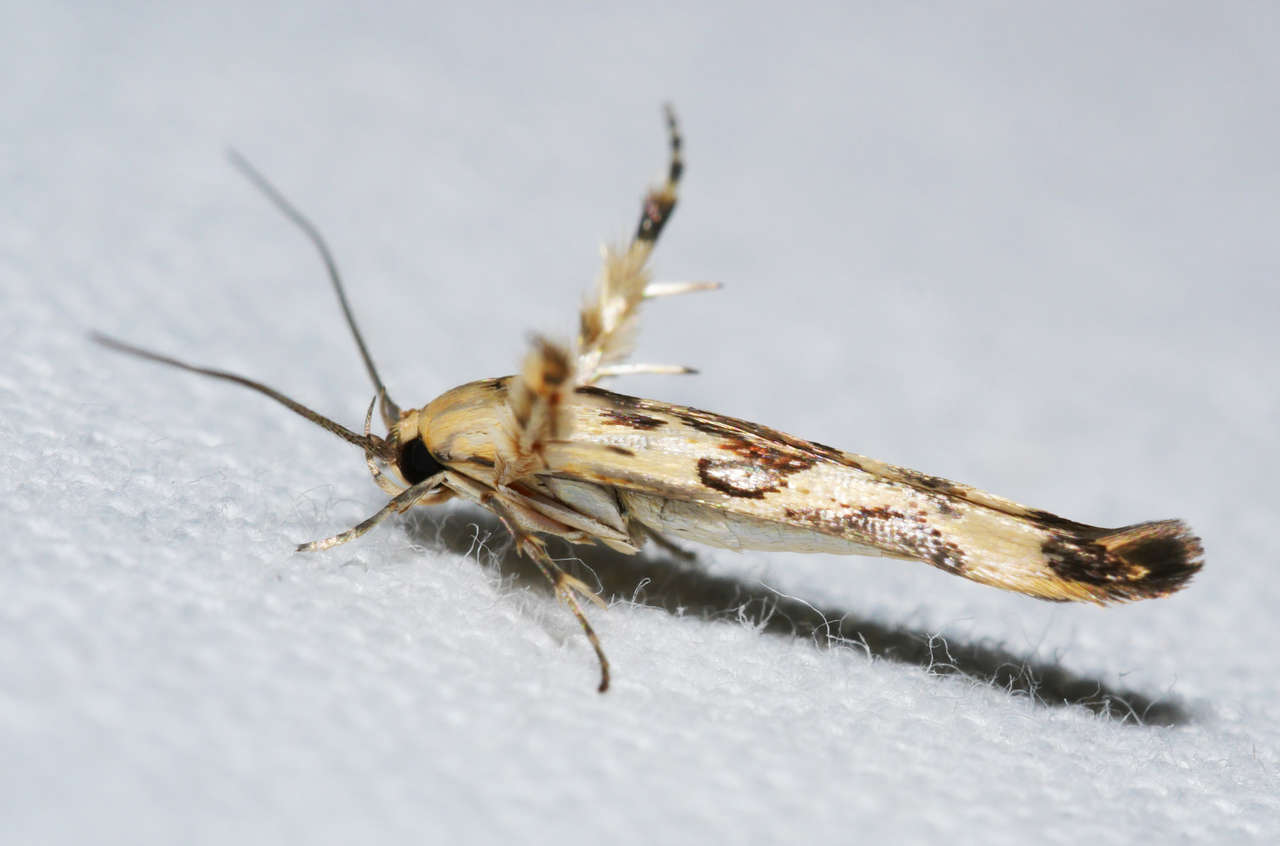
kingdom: Animalia
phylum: Arthropoda
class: Insecta
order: Lepidoptera
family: Stathmopodidae
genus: Stathmopoda
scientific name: Stathmopoda melanochra
